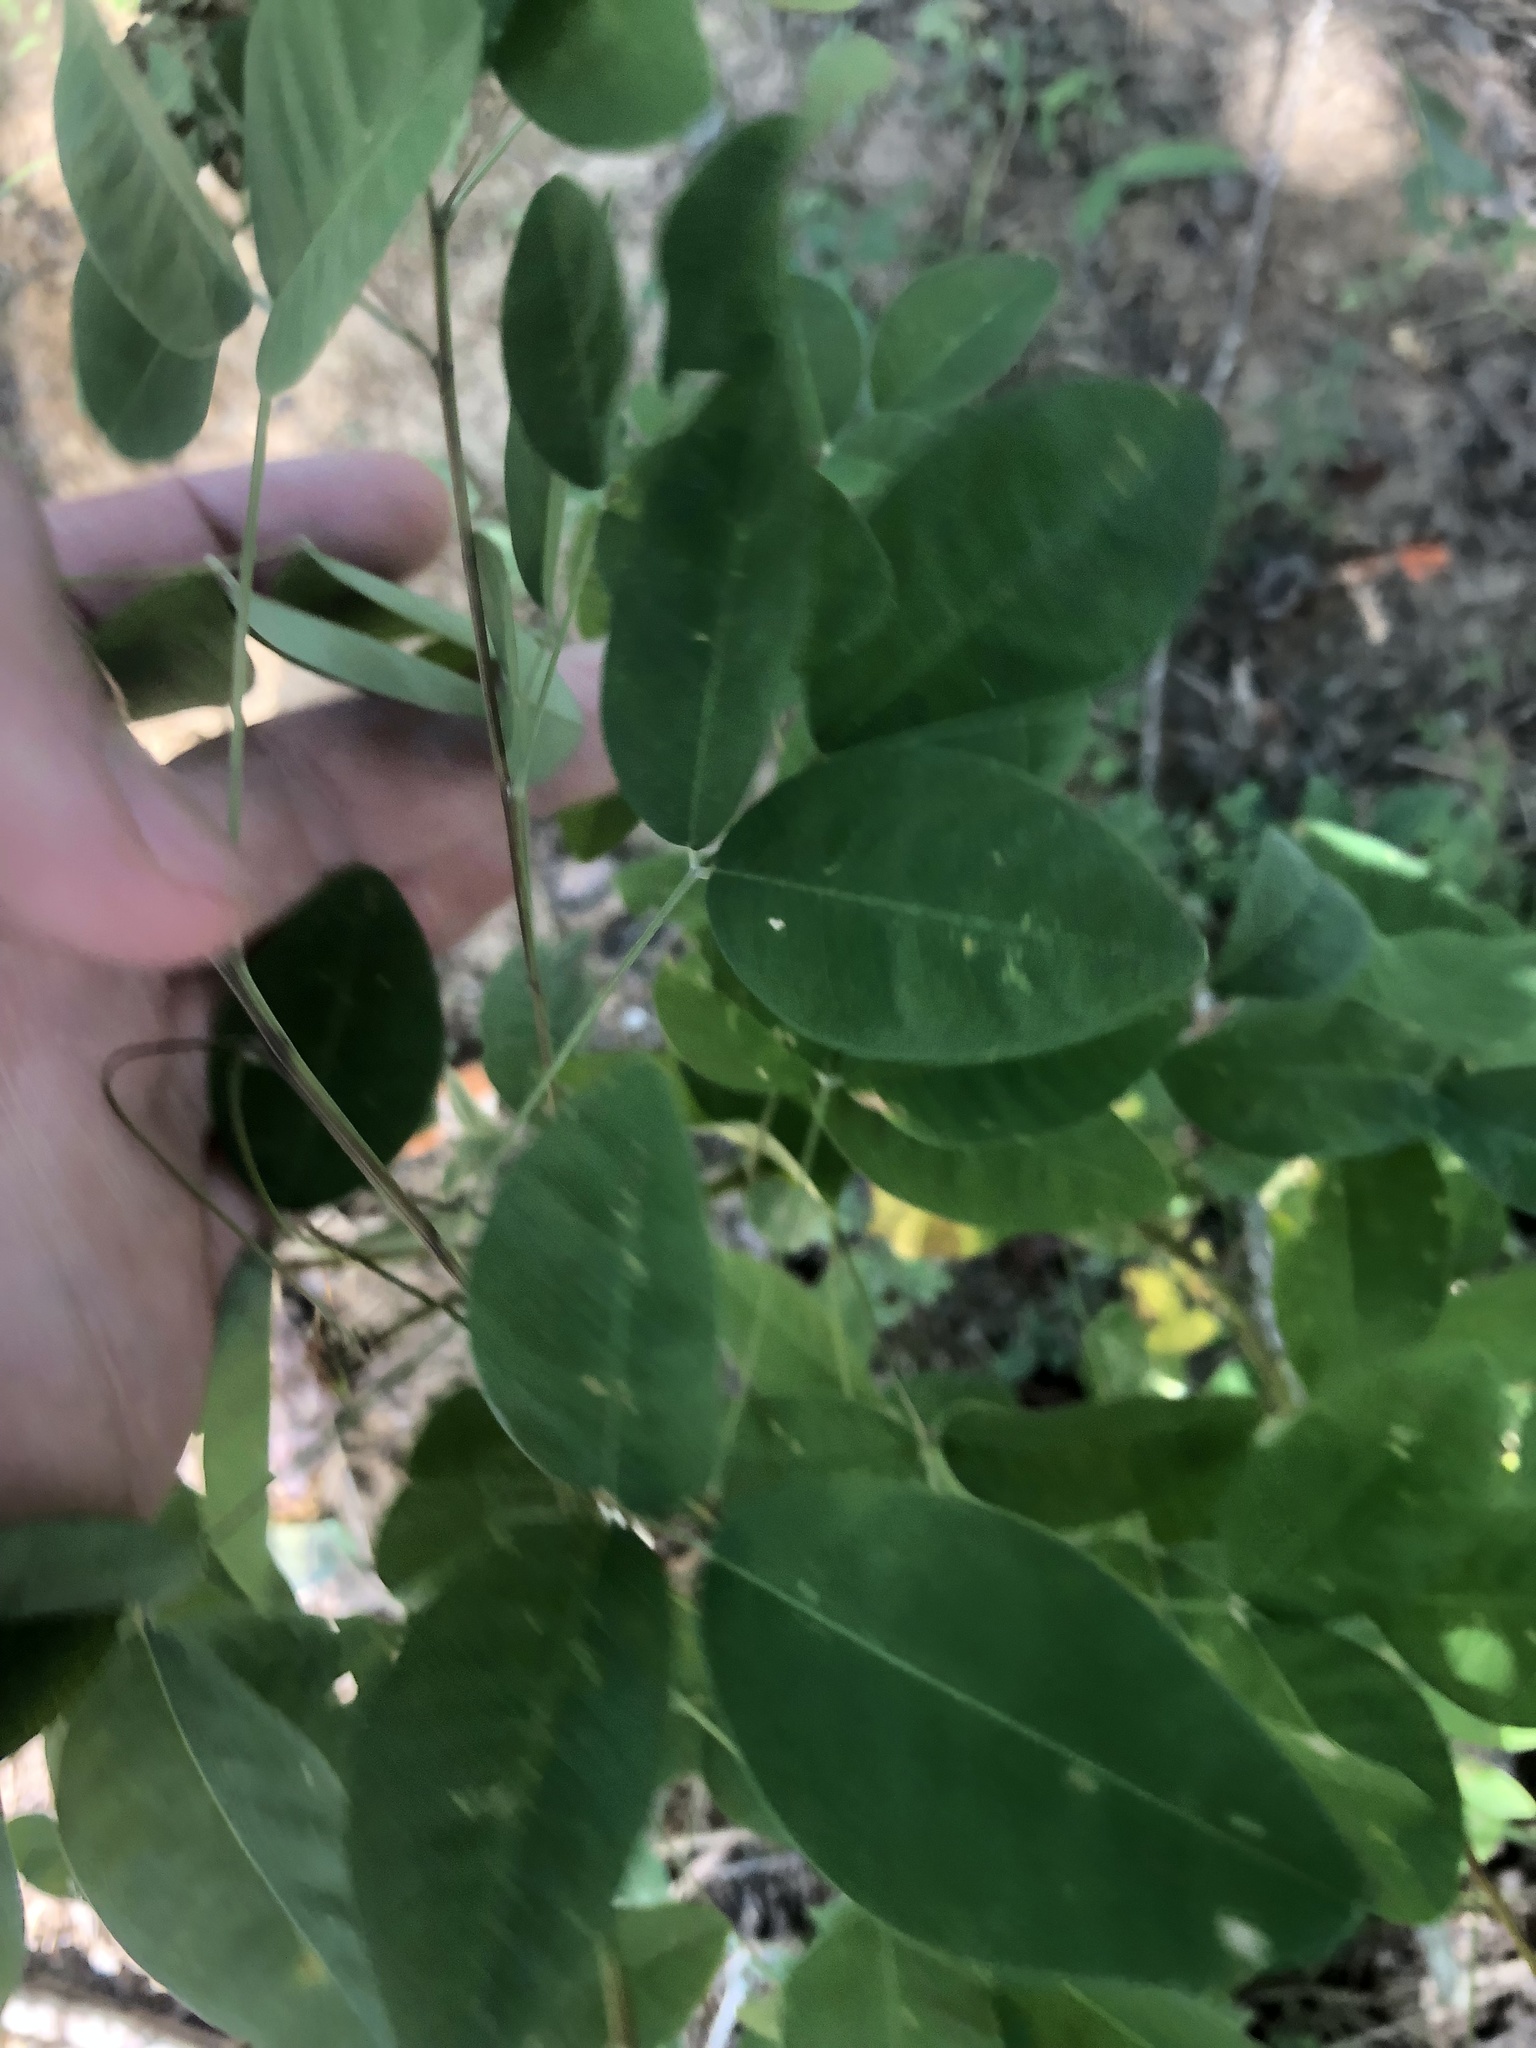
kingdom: Plantae
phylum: Tracheophyta
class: Magnoliopsida
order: Fabales
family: Fabaceae
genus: Lespedeza
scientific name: Lespedeza bicolor
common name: Shrub lespedeza
